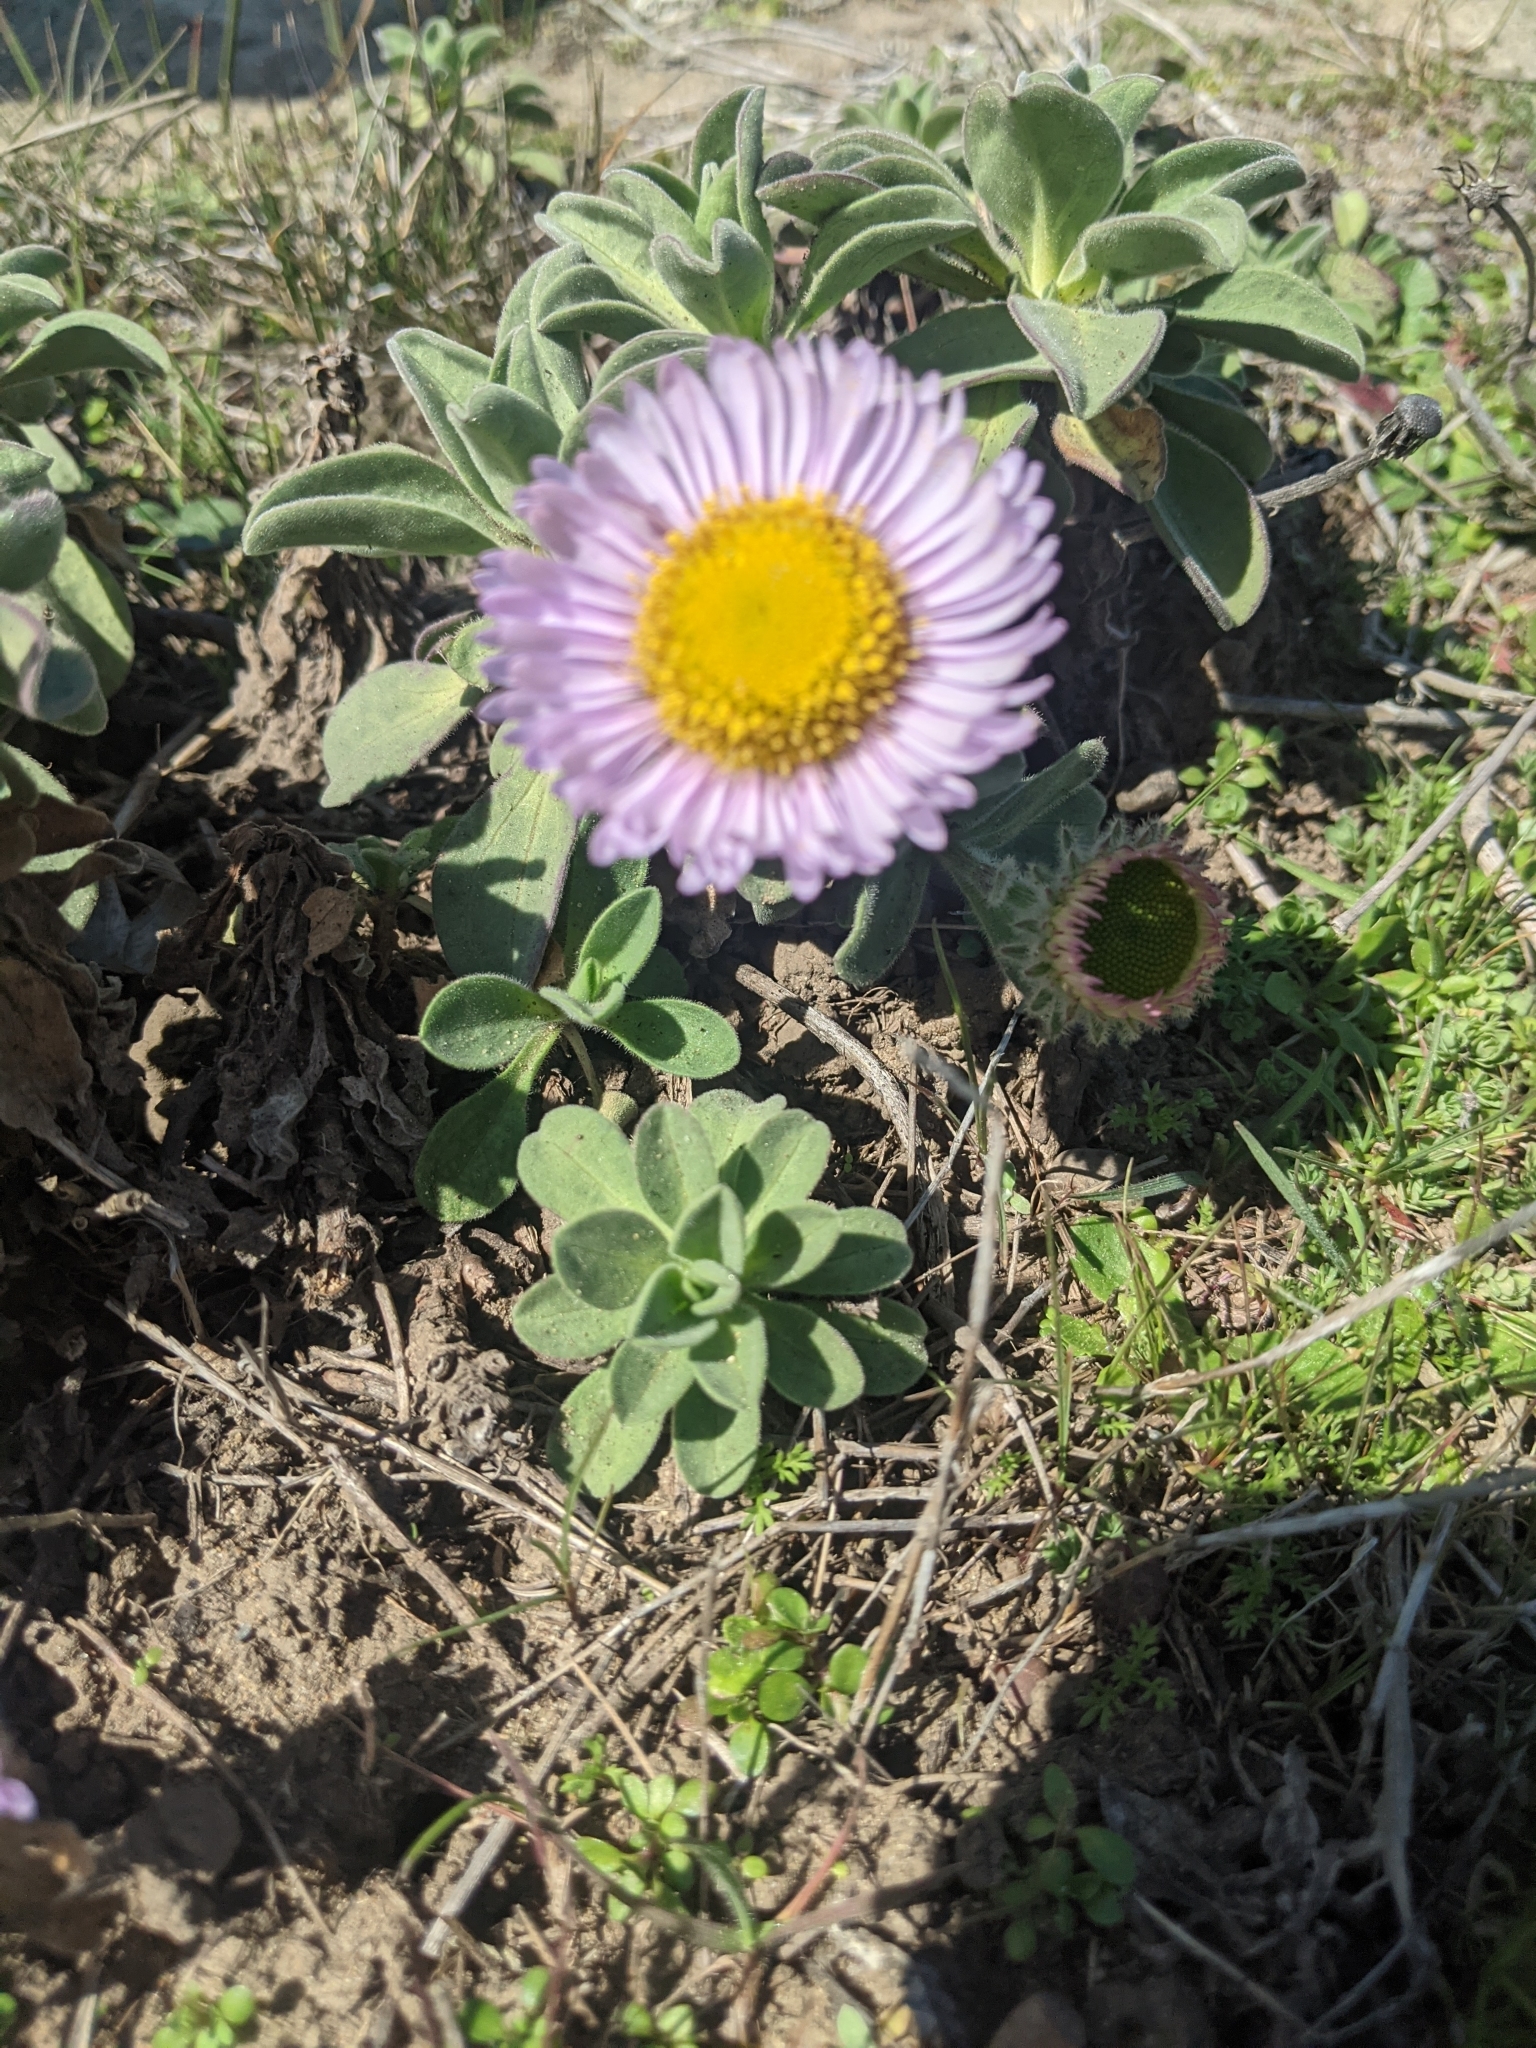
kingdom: Plantae
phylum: Tracheophyta
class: Magnoliopsida
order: Asterales
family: Asteraceae
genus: Erigeron
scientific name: Erigeron glaucus
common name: Seaside daisy
